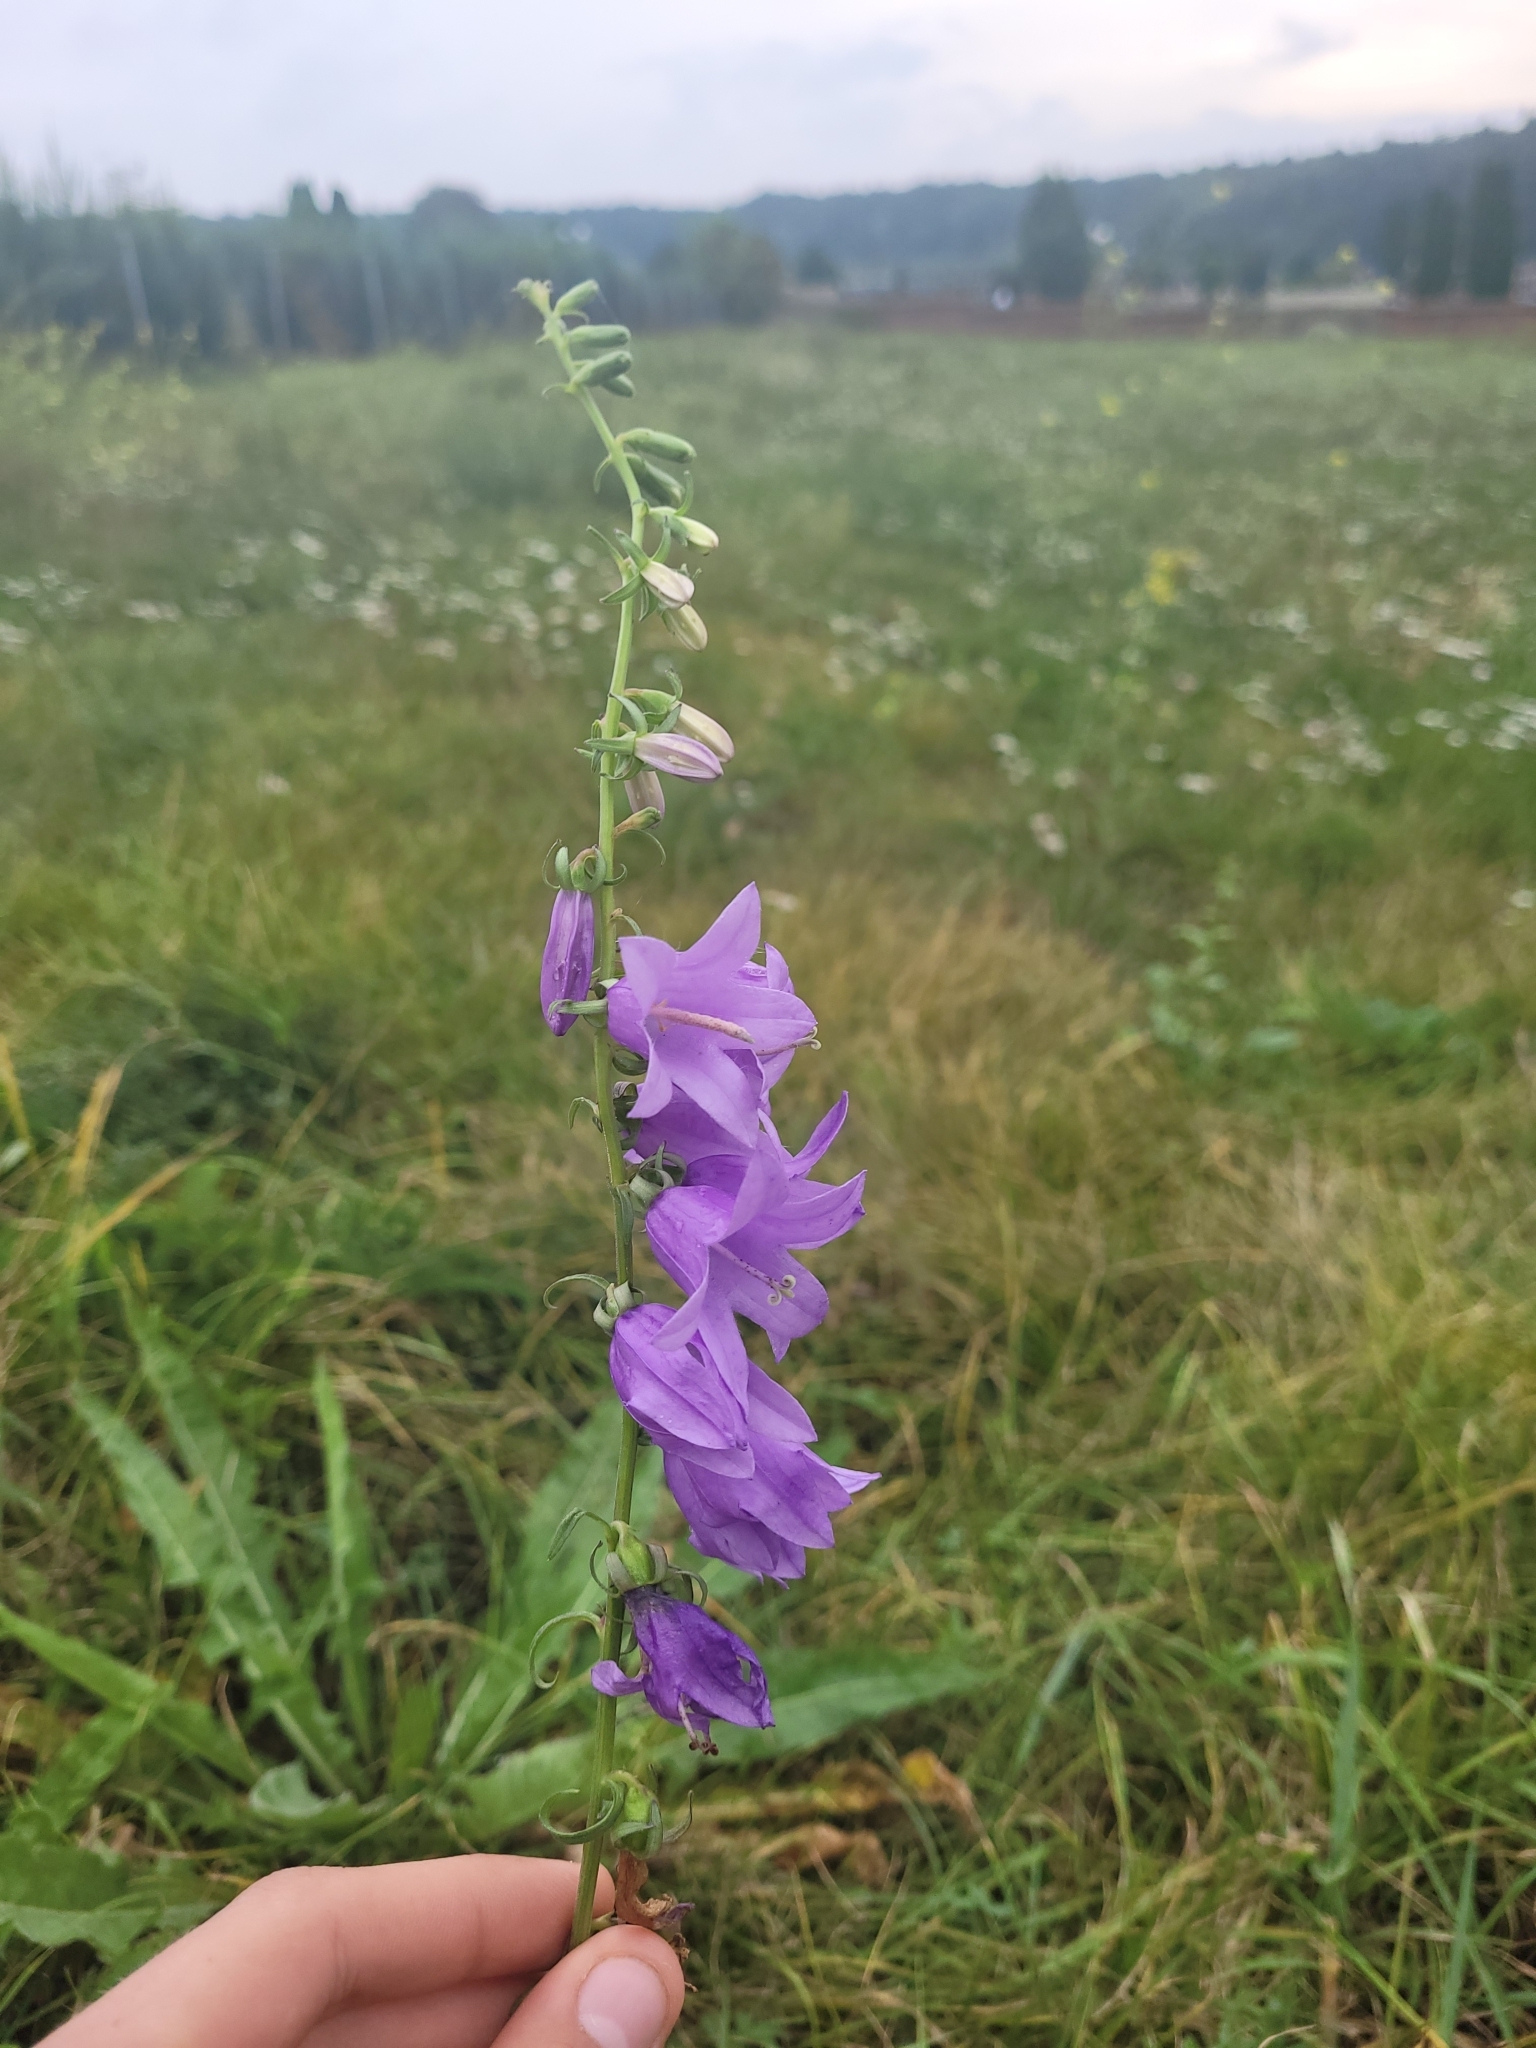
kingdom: Plantae
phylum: Tracheophyta
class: Magnoliopsida
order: Asterales
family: Campanulaceae
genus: Campanula
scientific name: Campanula rapunculoides
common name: Creeping bellflower
